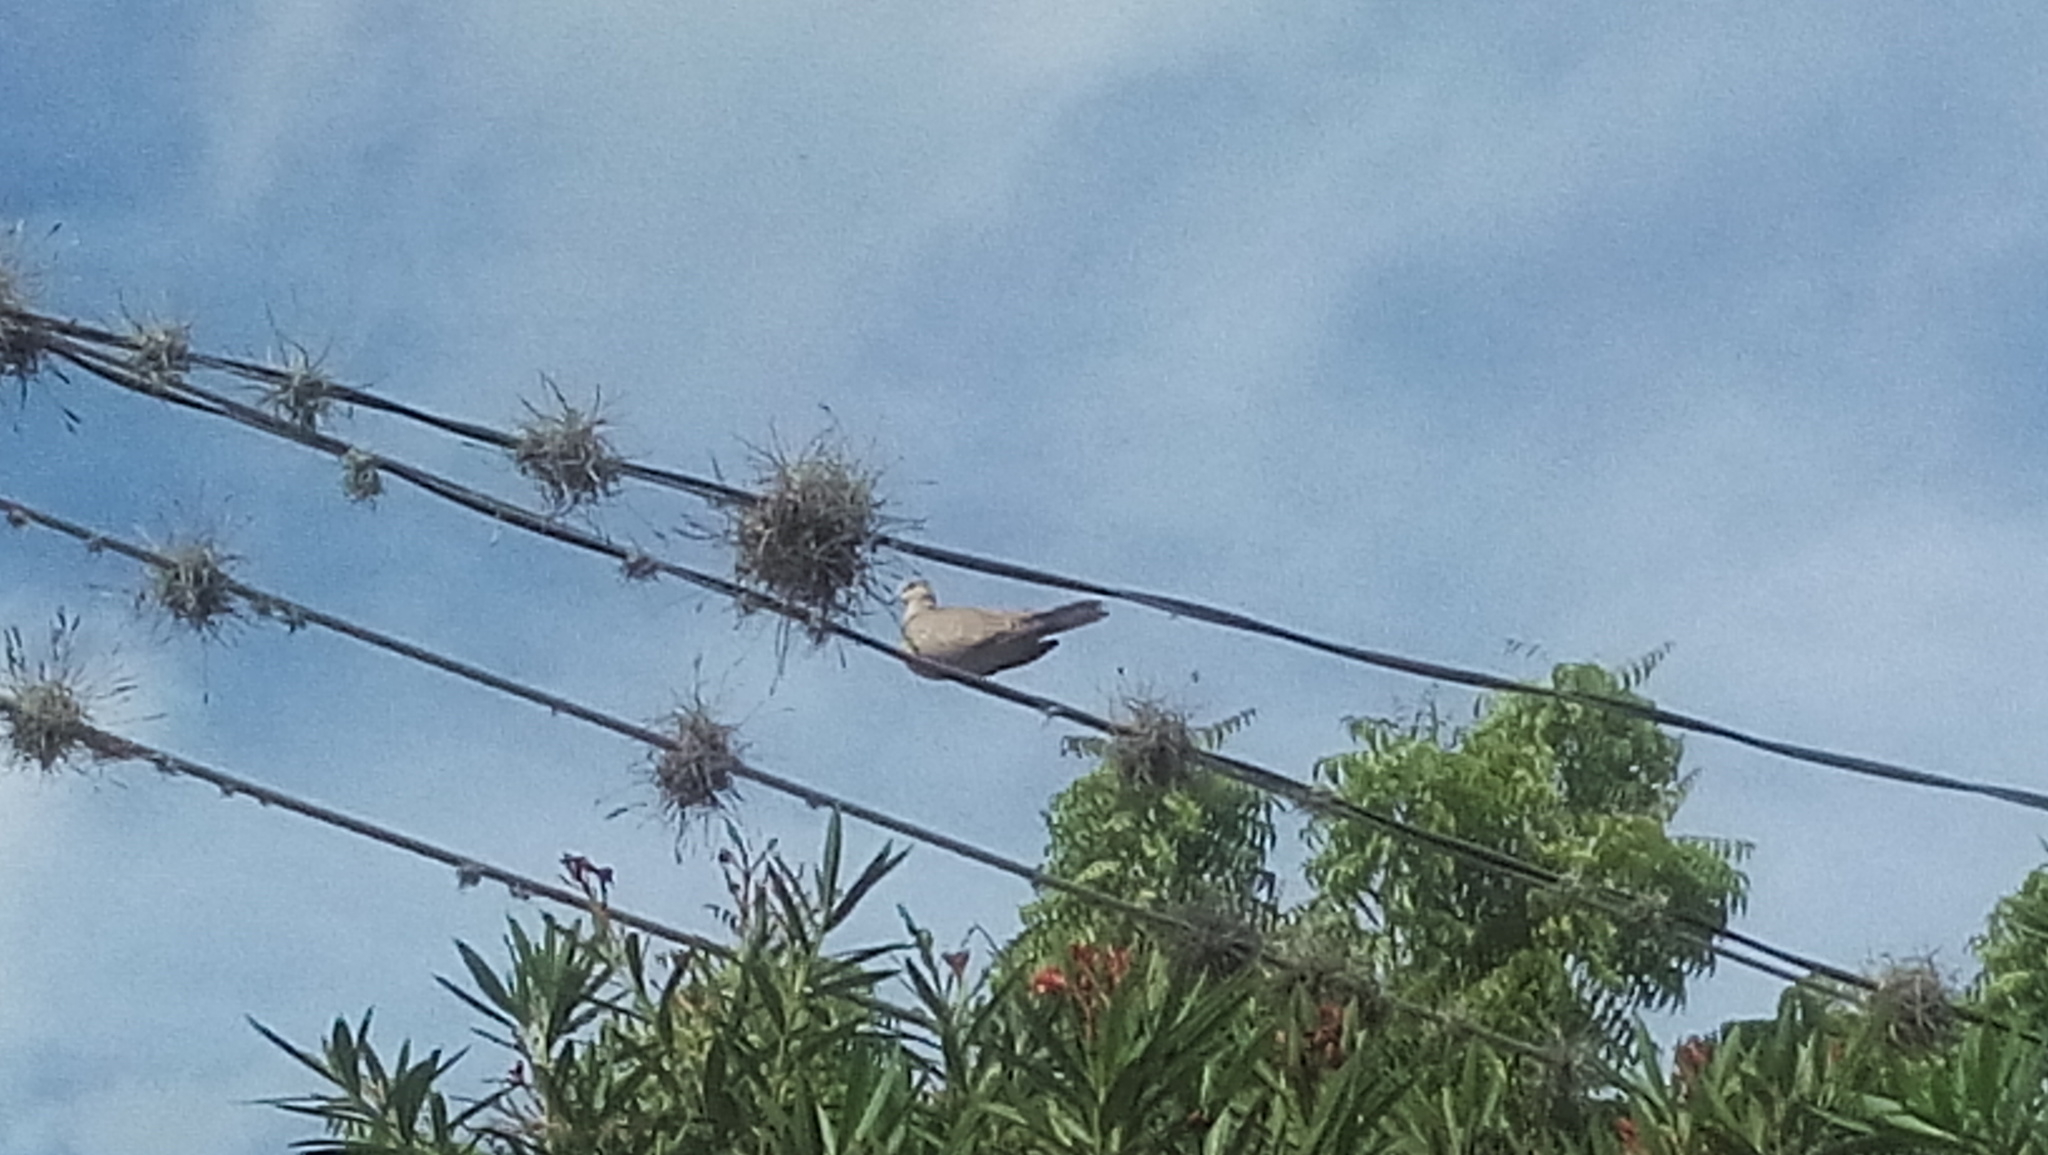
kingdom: Animalia
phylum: Chordata
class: Aves
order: Columbiformes
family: Columbidae
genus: Streptopelia
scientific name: Streptopelia decaocto
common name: Eurasian collared dove
